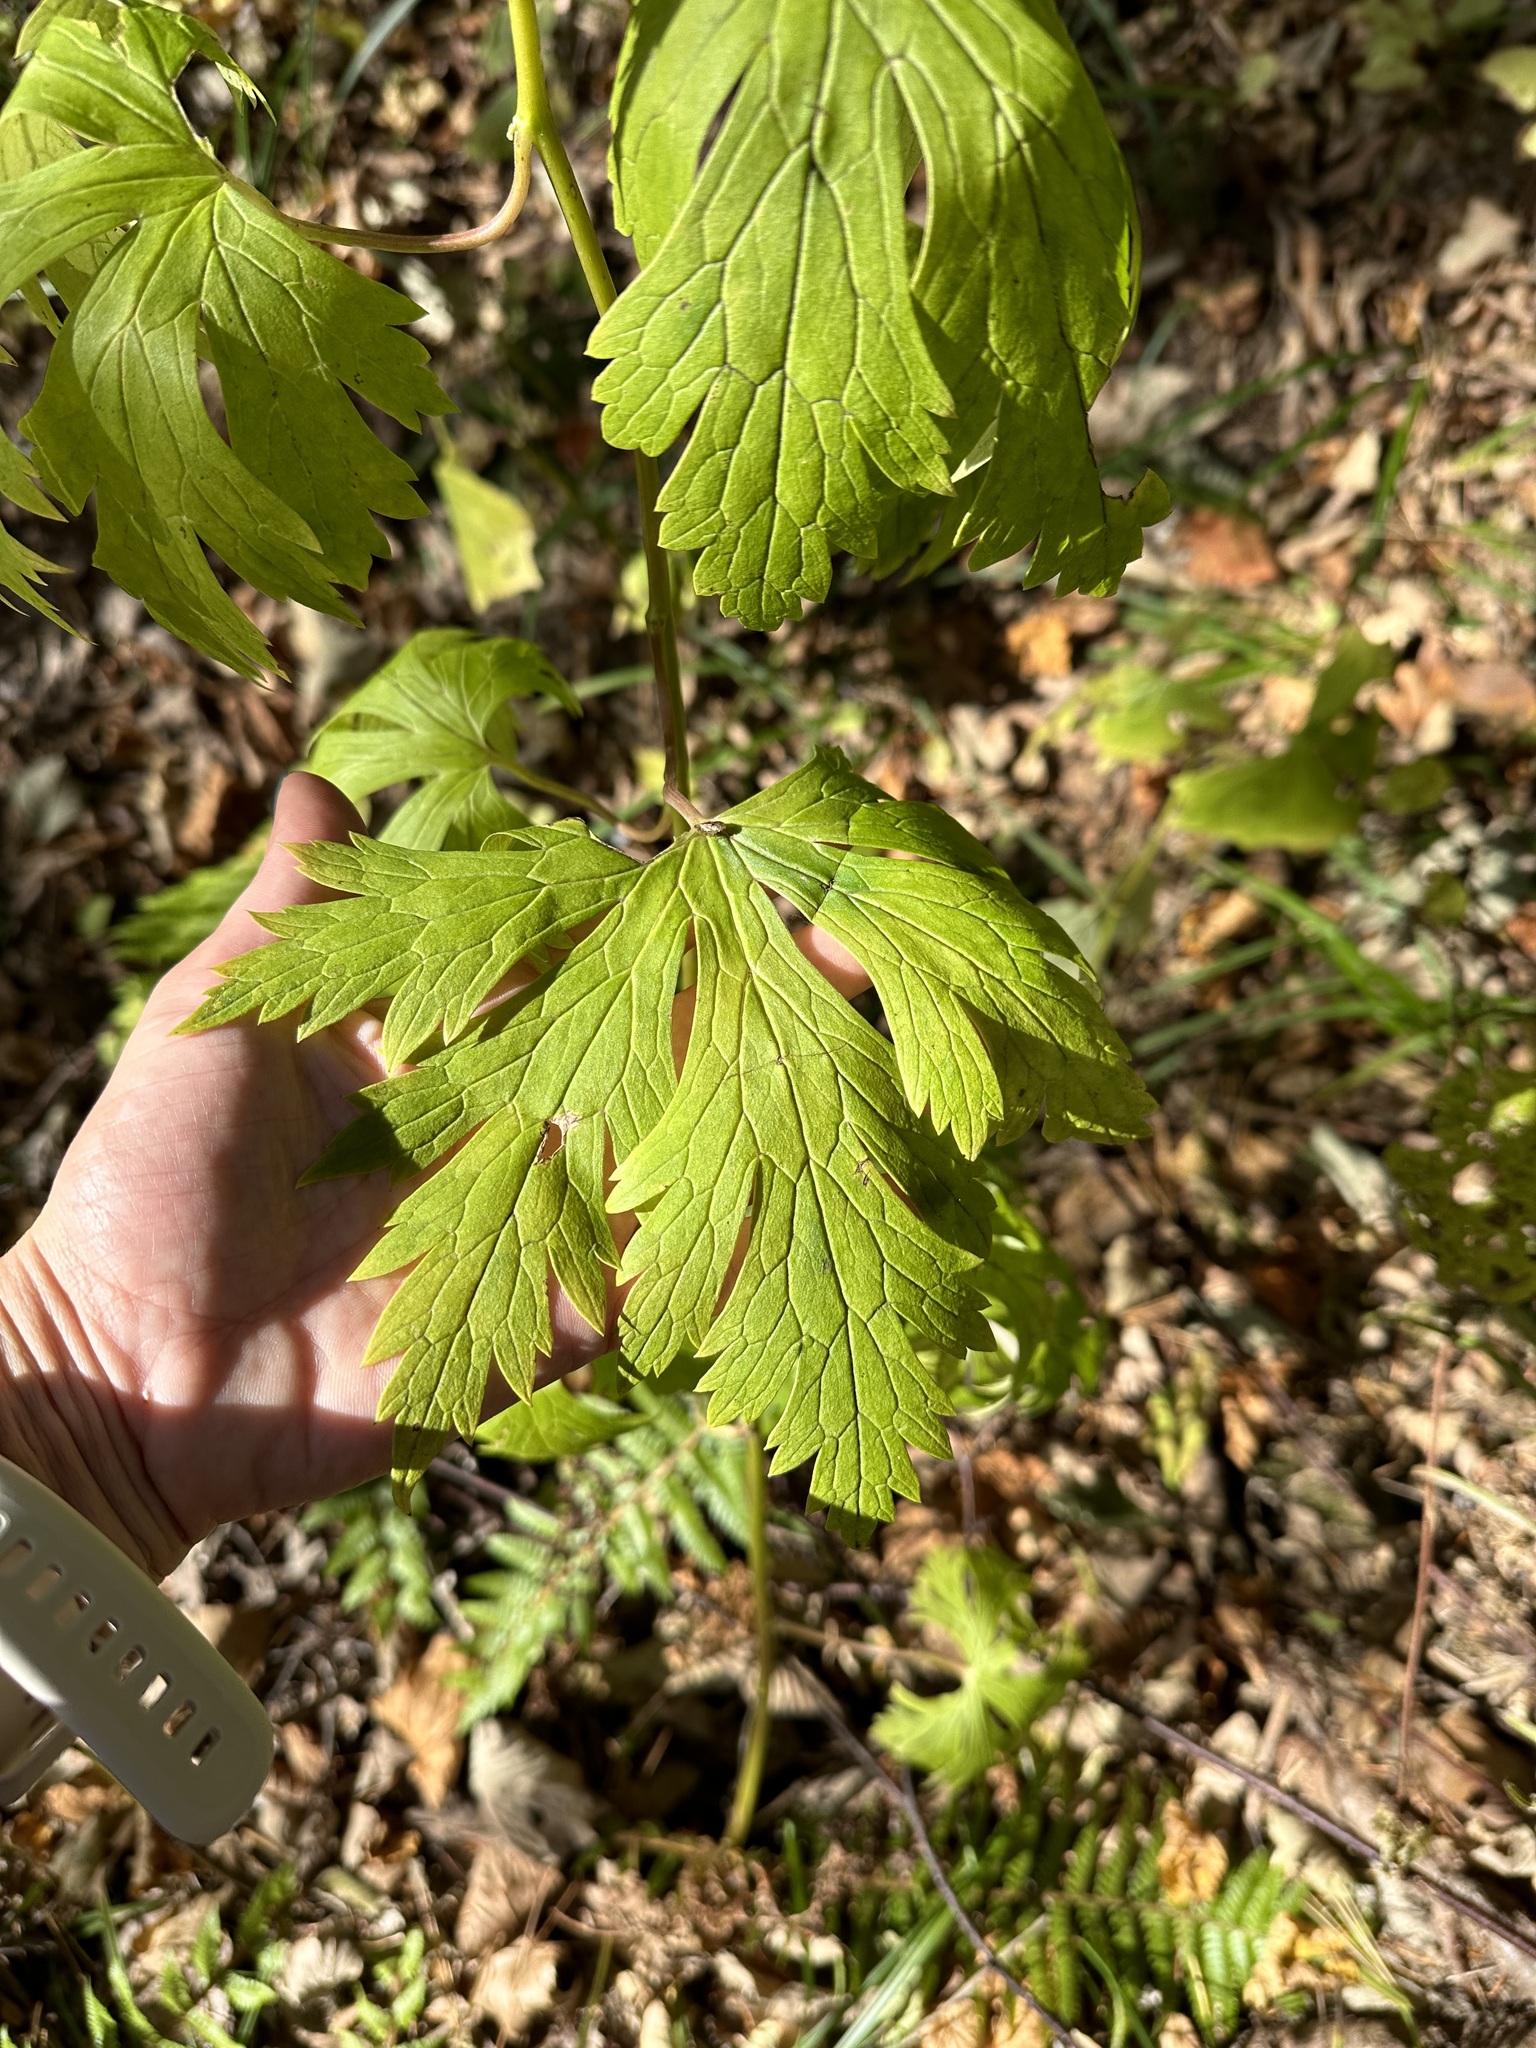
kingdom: Plantae
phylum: Tracheophyta
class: Magnoliopsida
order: Ranunculales
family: Ranunculaceae
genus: Aconitum
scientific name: Aconitum sczukinii
